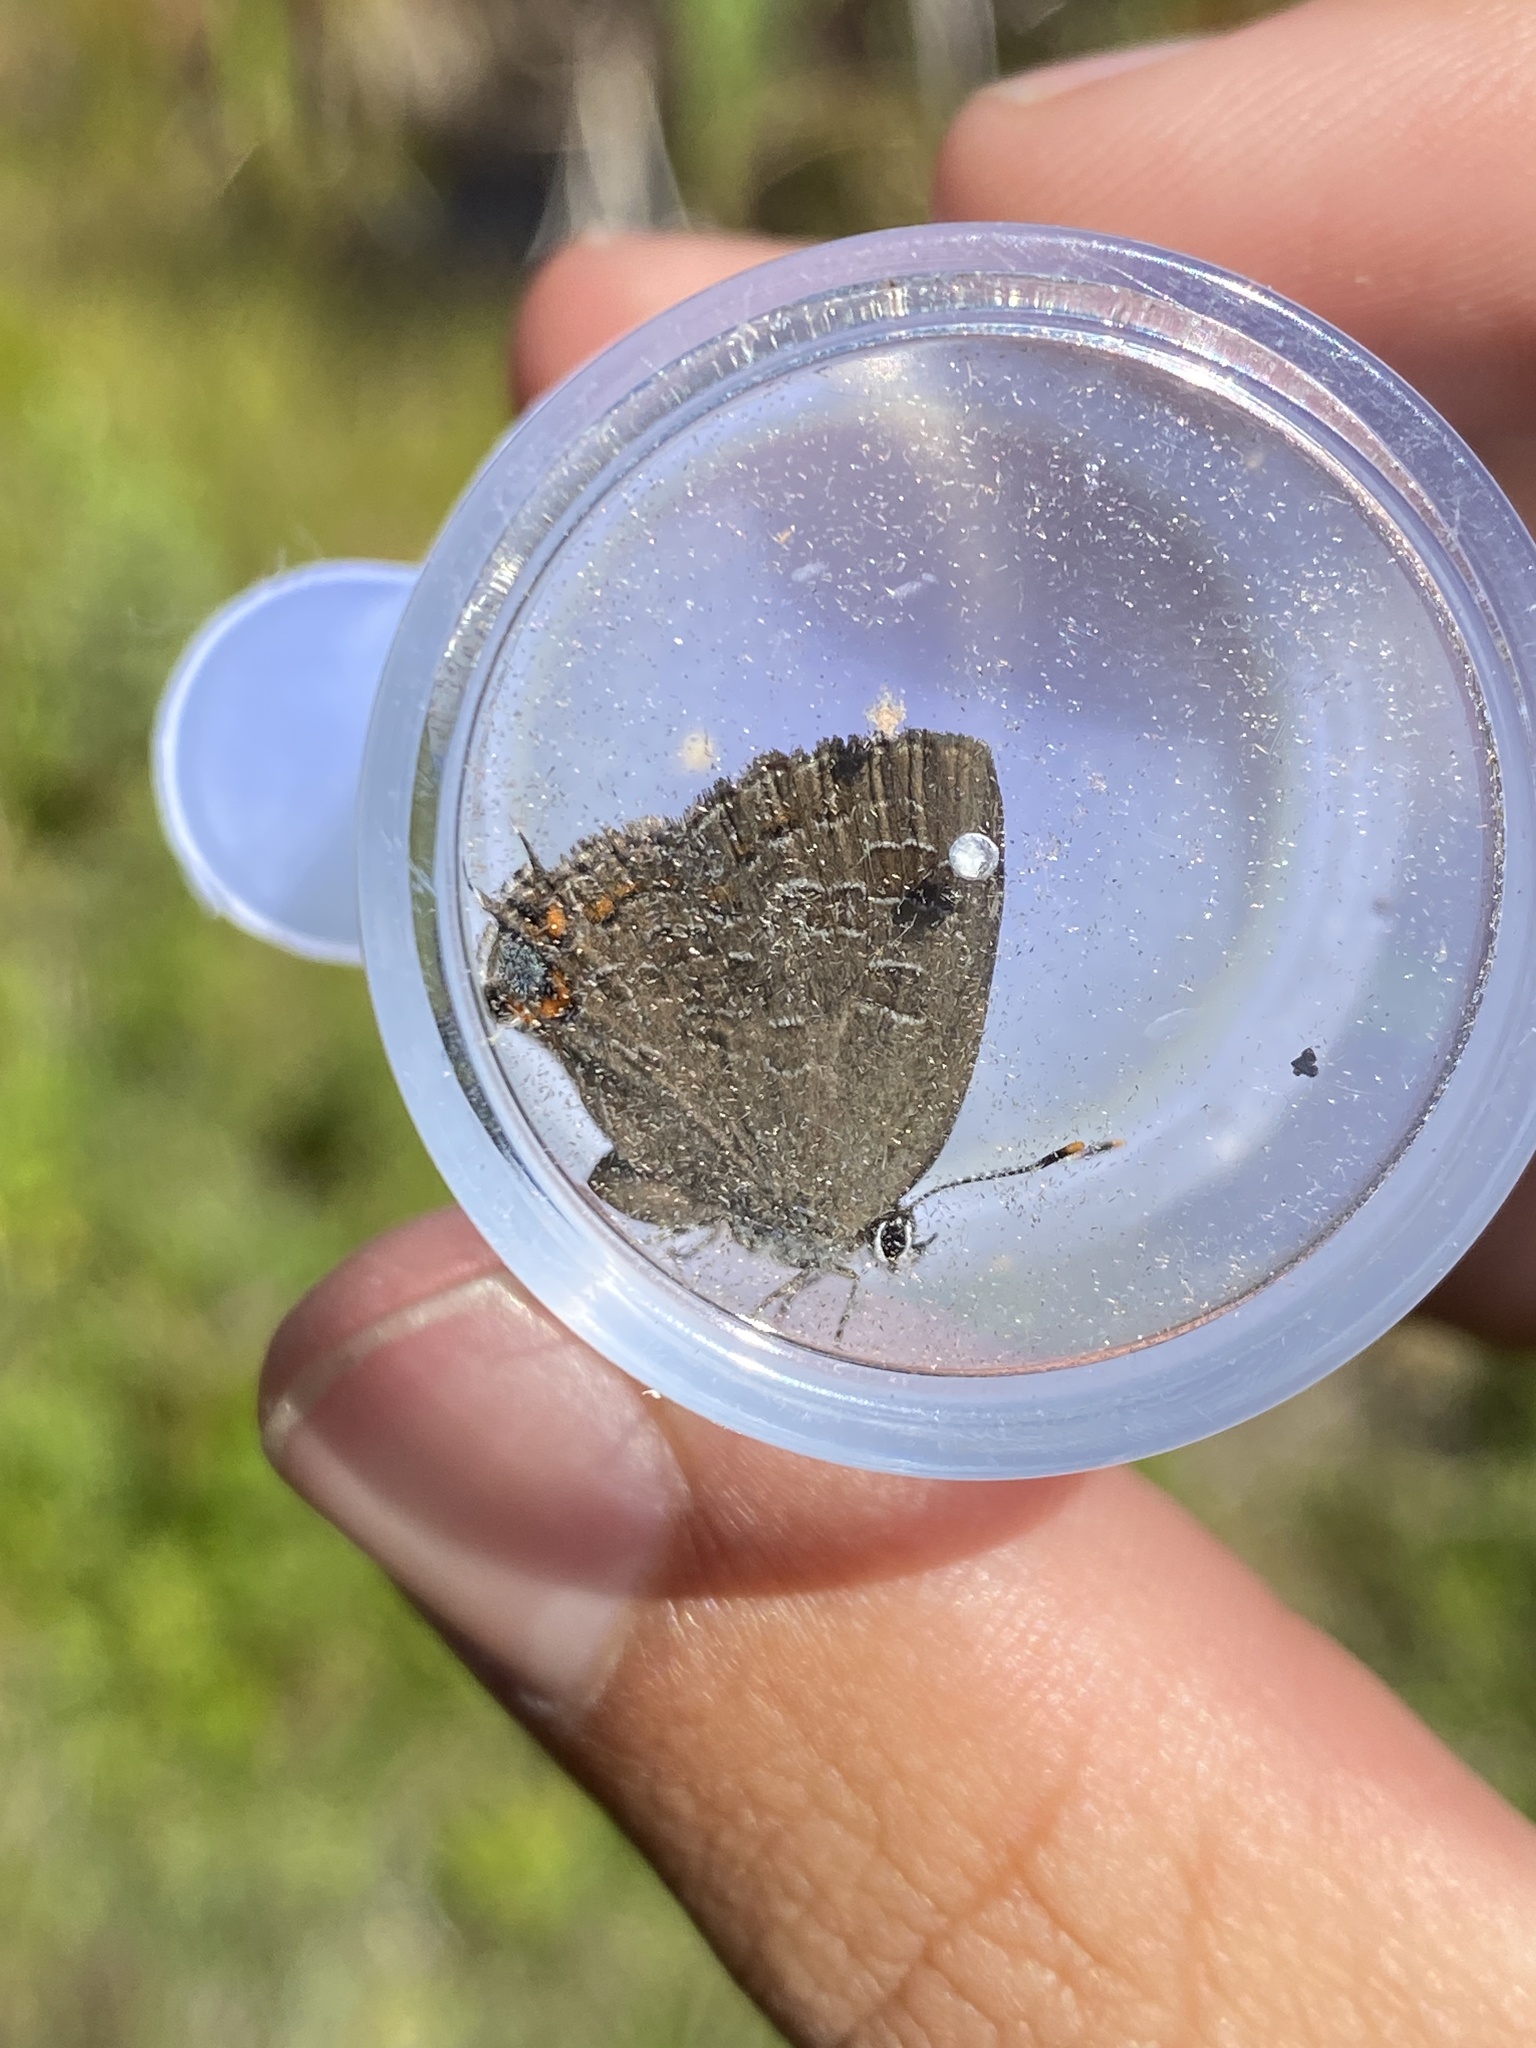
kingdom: Animalia
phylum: Arthropoda
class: Insecta
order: Lepidoptera
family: Lycaenidae
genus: Satyrium
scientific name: Satyrium liparops
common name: Striped hairstreak
